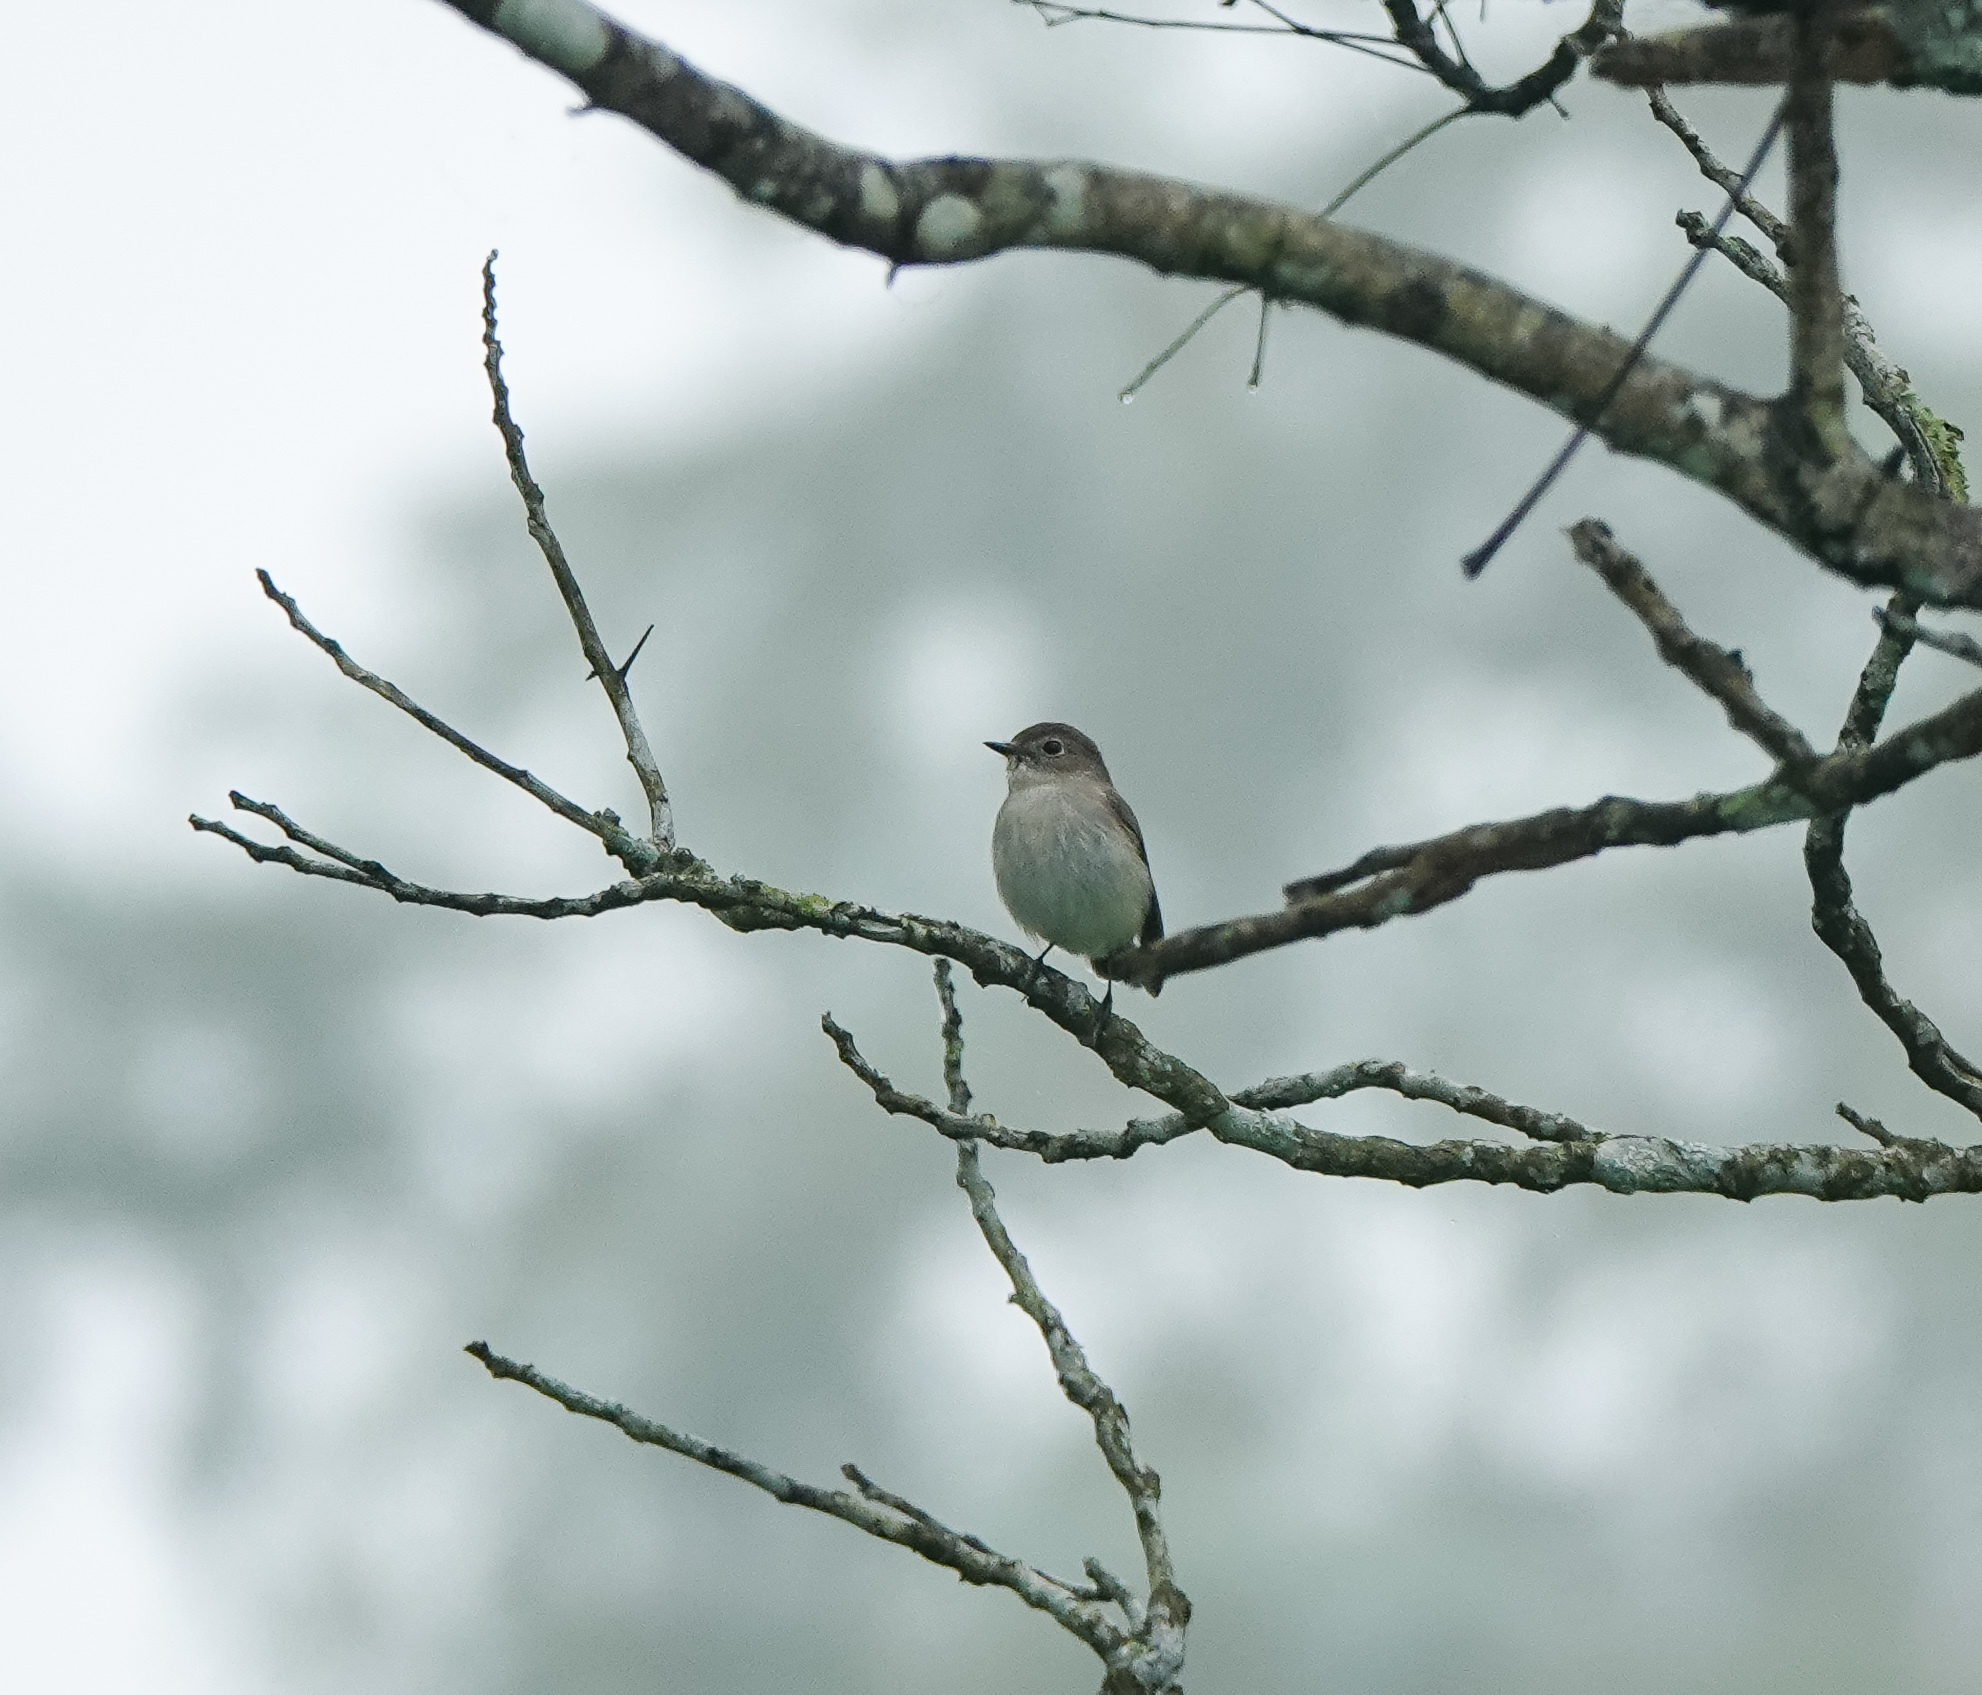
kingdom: Animalia
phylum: Chordata
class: Aves
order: Passeriformes
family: Muscicapidae
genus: Ficedula
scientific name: Ficedula albicilla
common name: Taiga flycatcher
